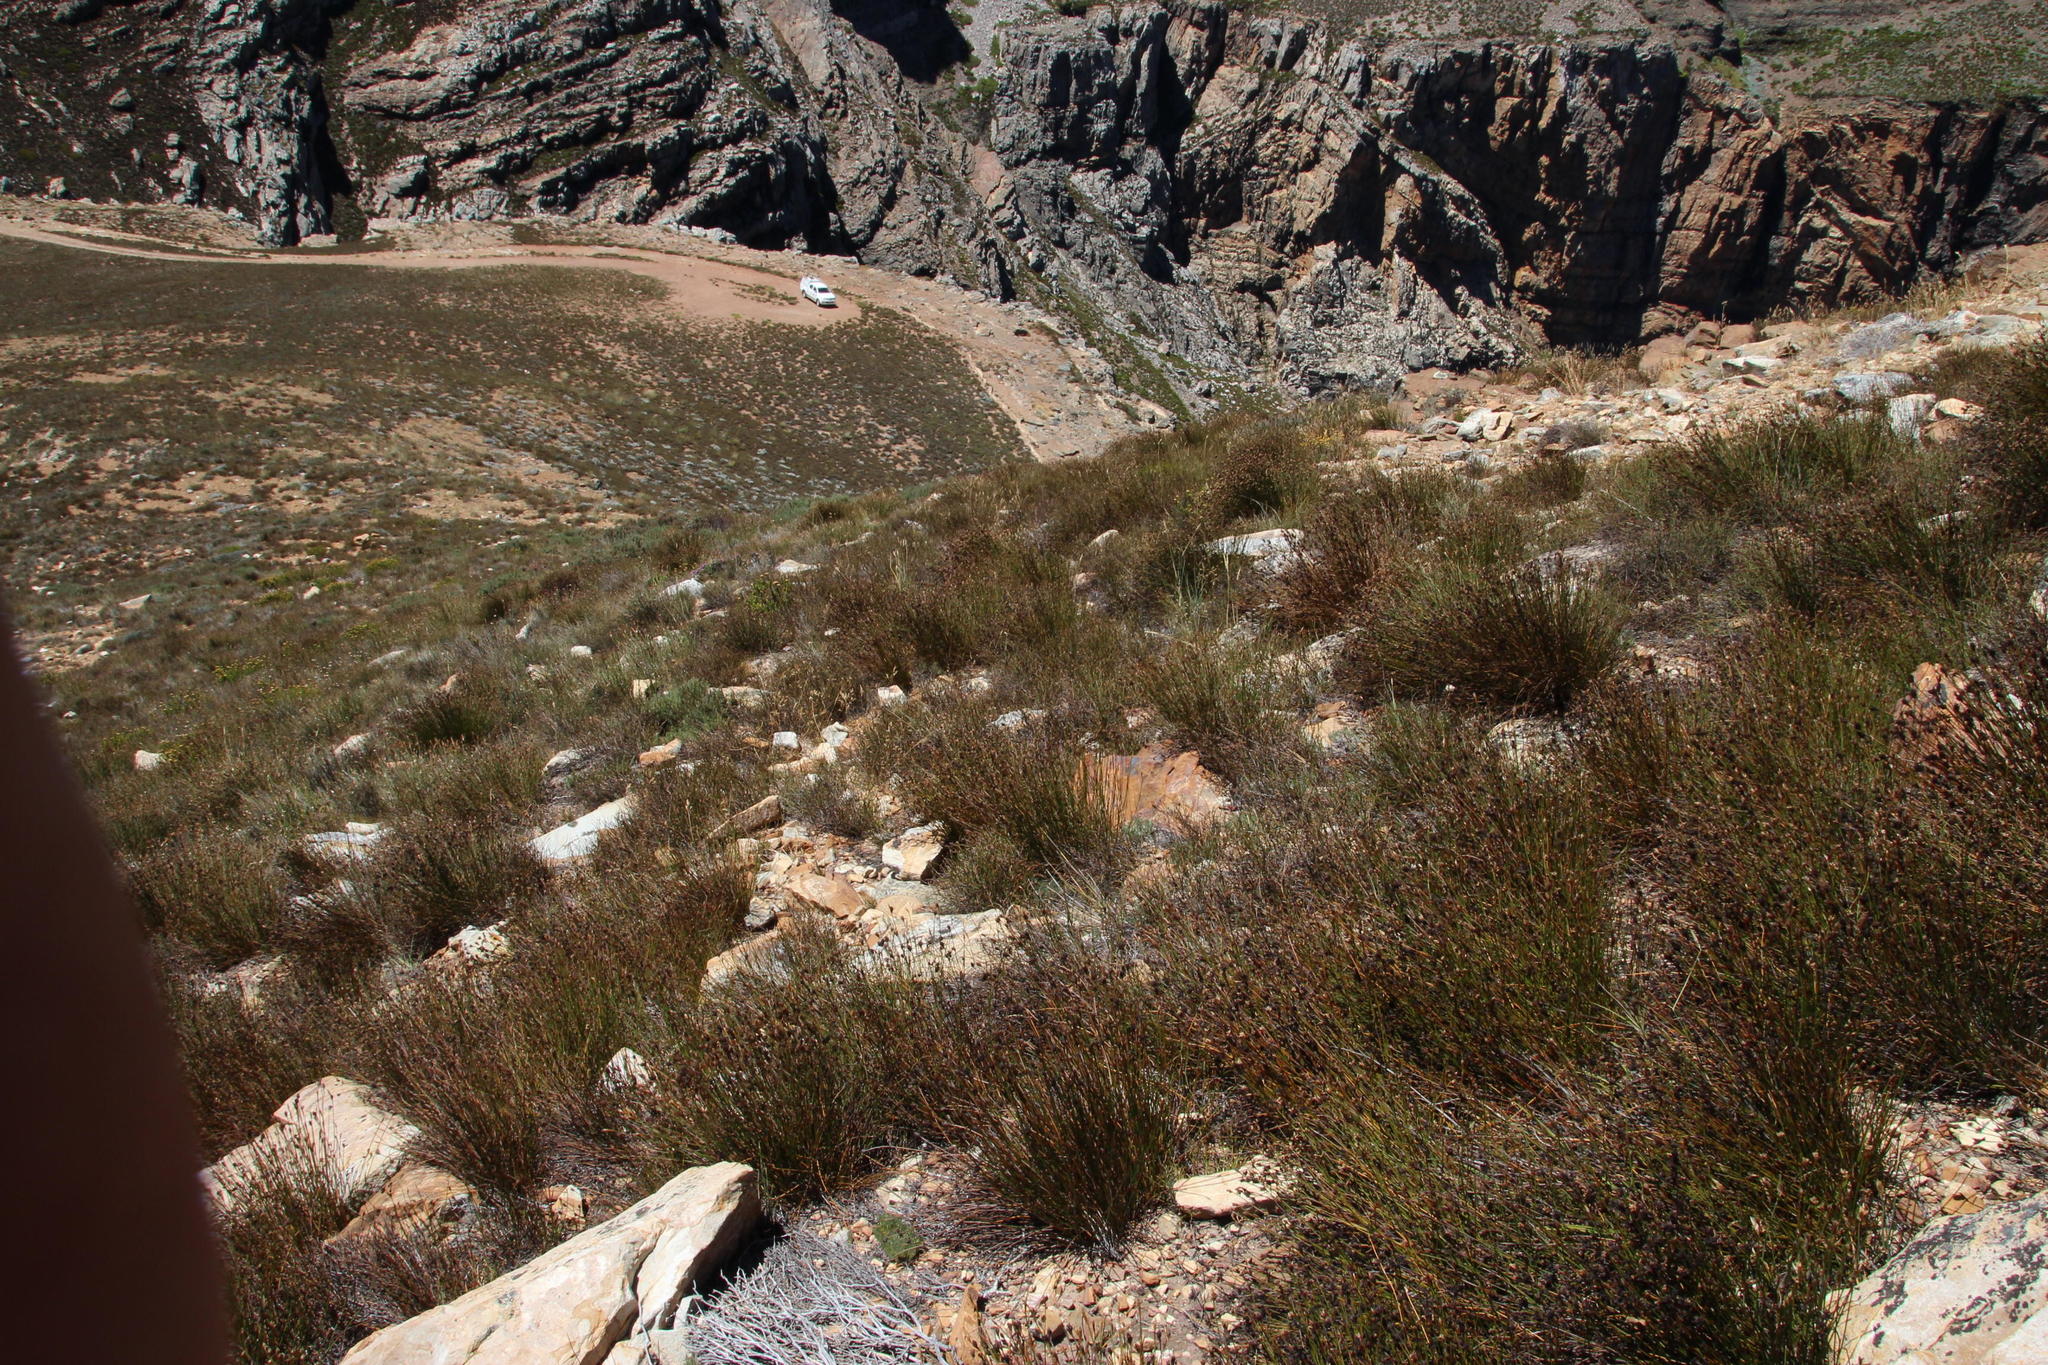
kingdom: Plantae
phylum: Tracheophyta
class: Liliopsida
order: Poales
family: Restionaceae
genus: Cannomois
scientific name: Cannomois aristata
